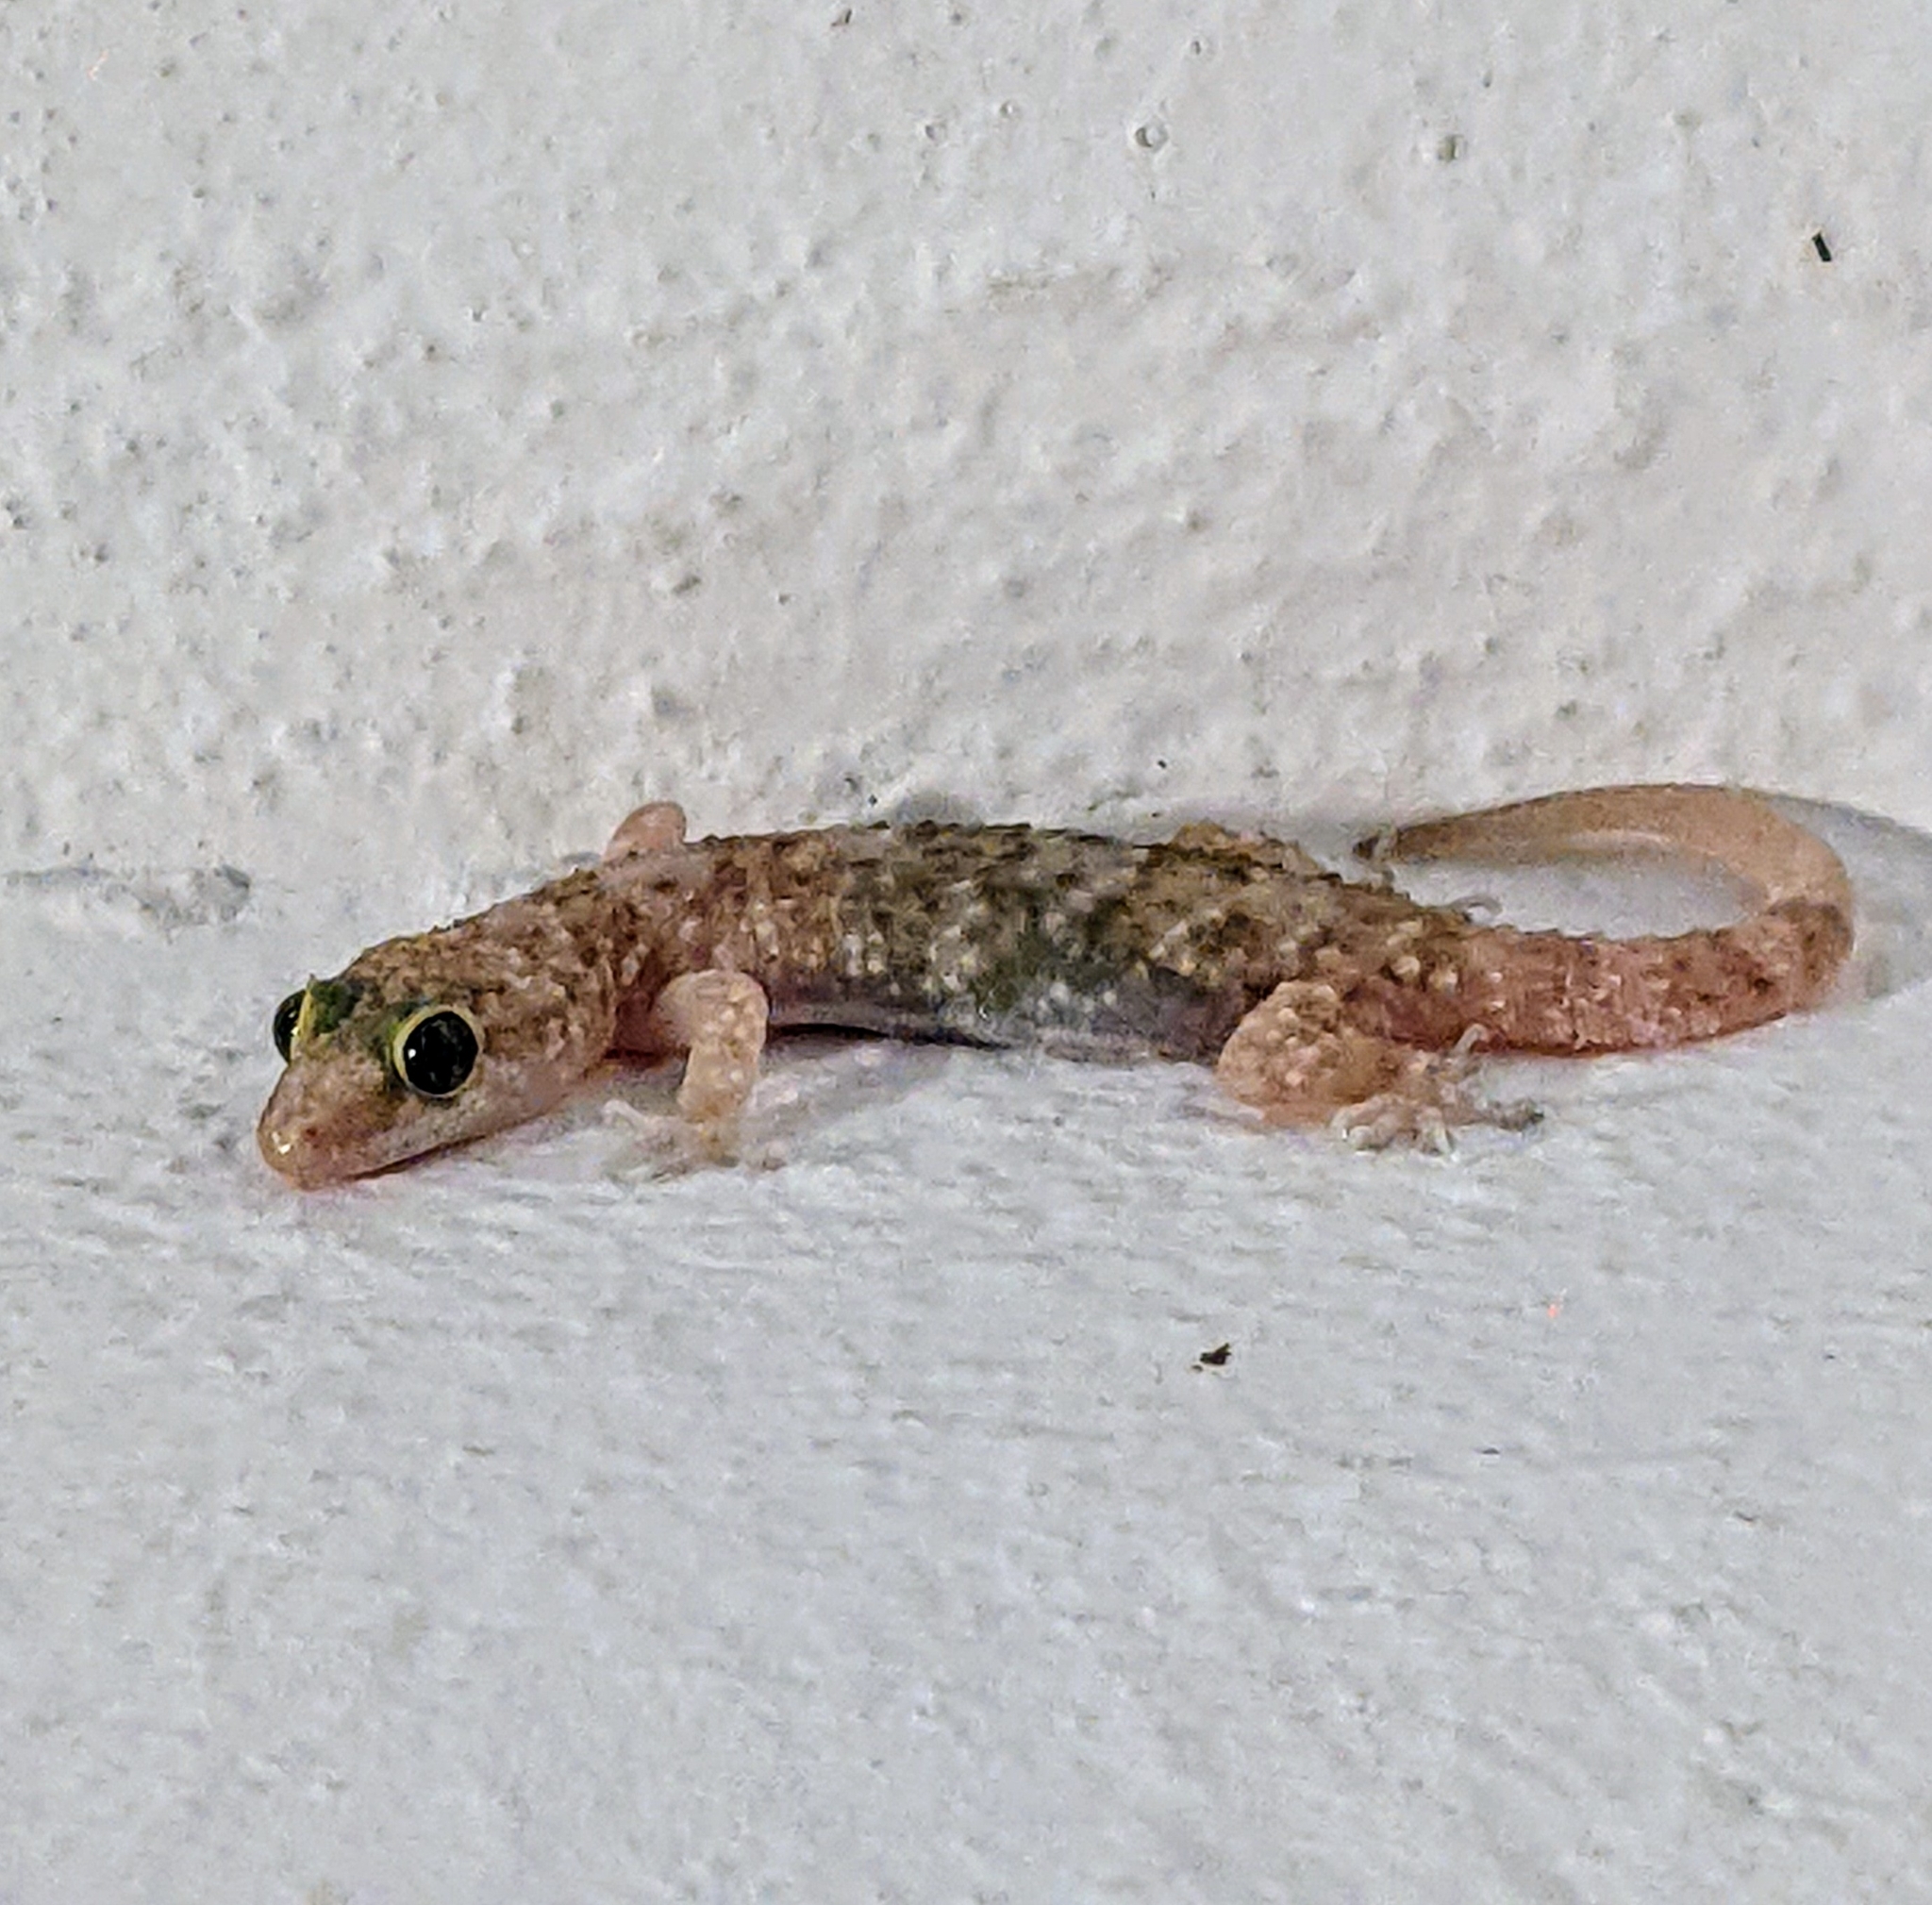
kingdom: Animalia
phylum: Chordata
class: Squamata
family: Gekkonidae
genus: Hemidactylus
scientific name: Hemidactylus turcicus
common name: Turkish gecko
